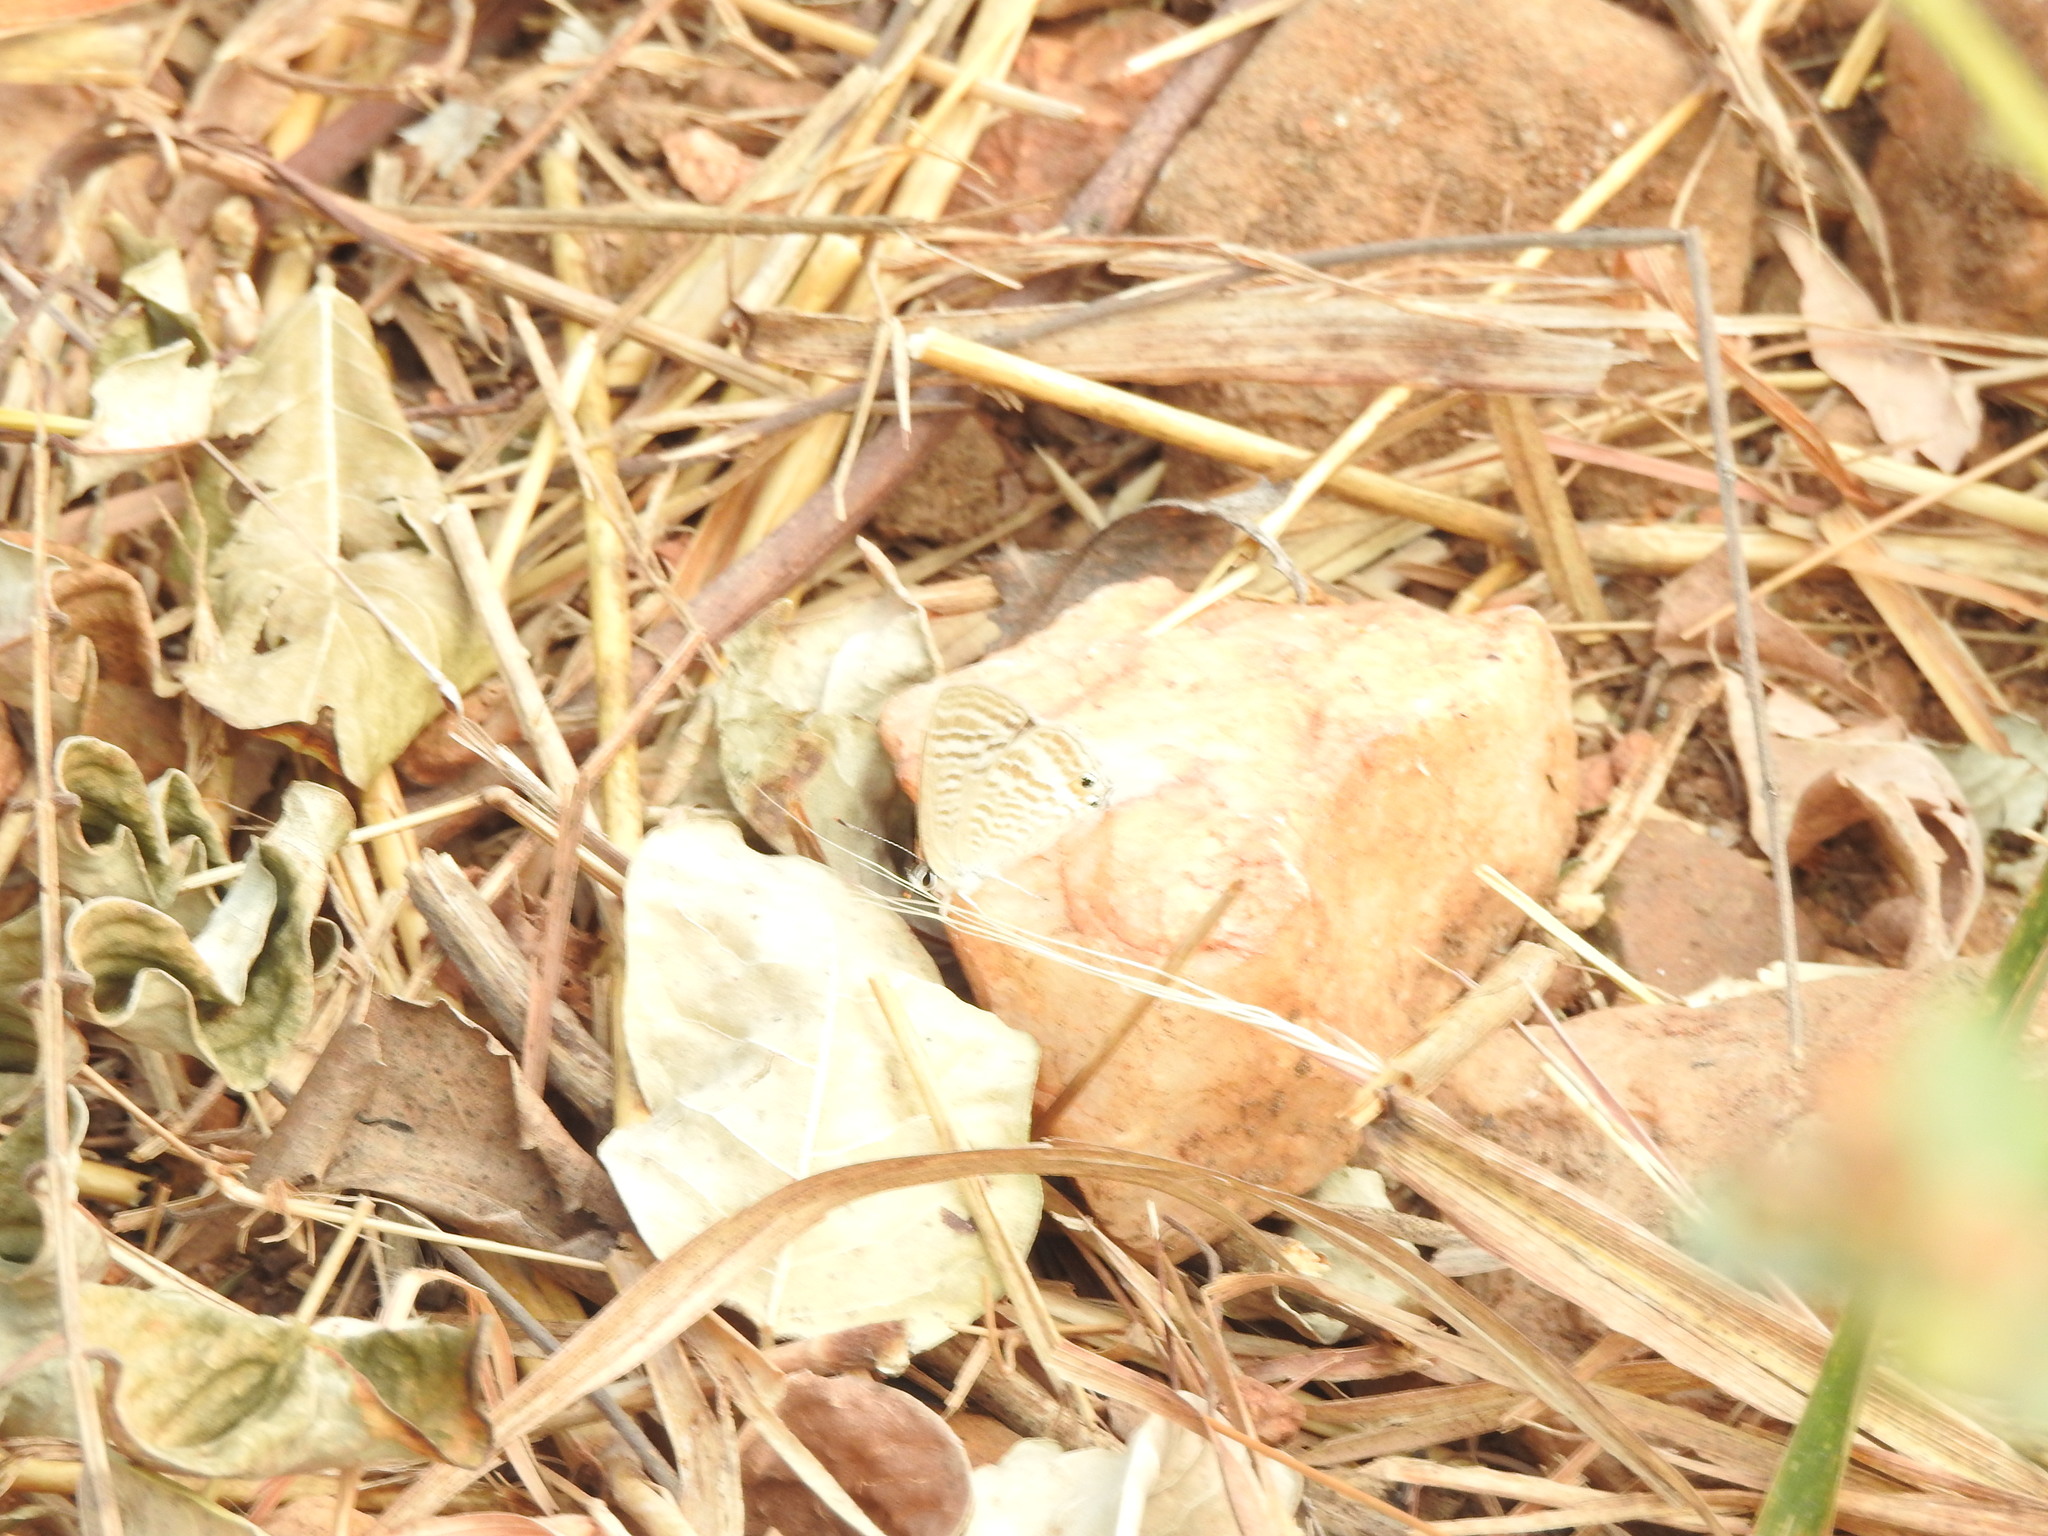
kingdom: Animalia
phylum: Arthropoda
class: Insecta
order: Lepidoptera
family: Lycaenidae
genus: Lampides
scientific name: Lampides boeticus
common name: Long-tailed blue
